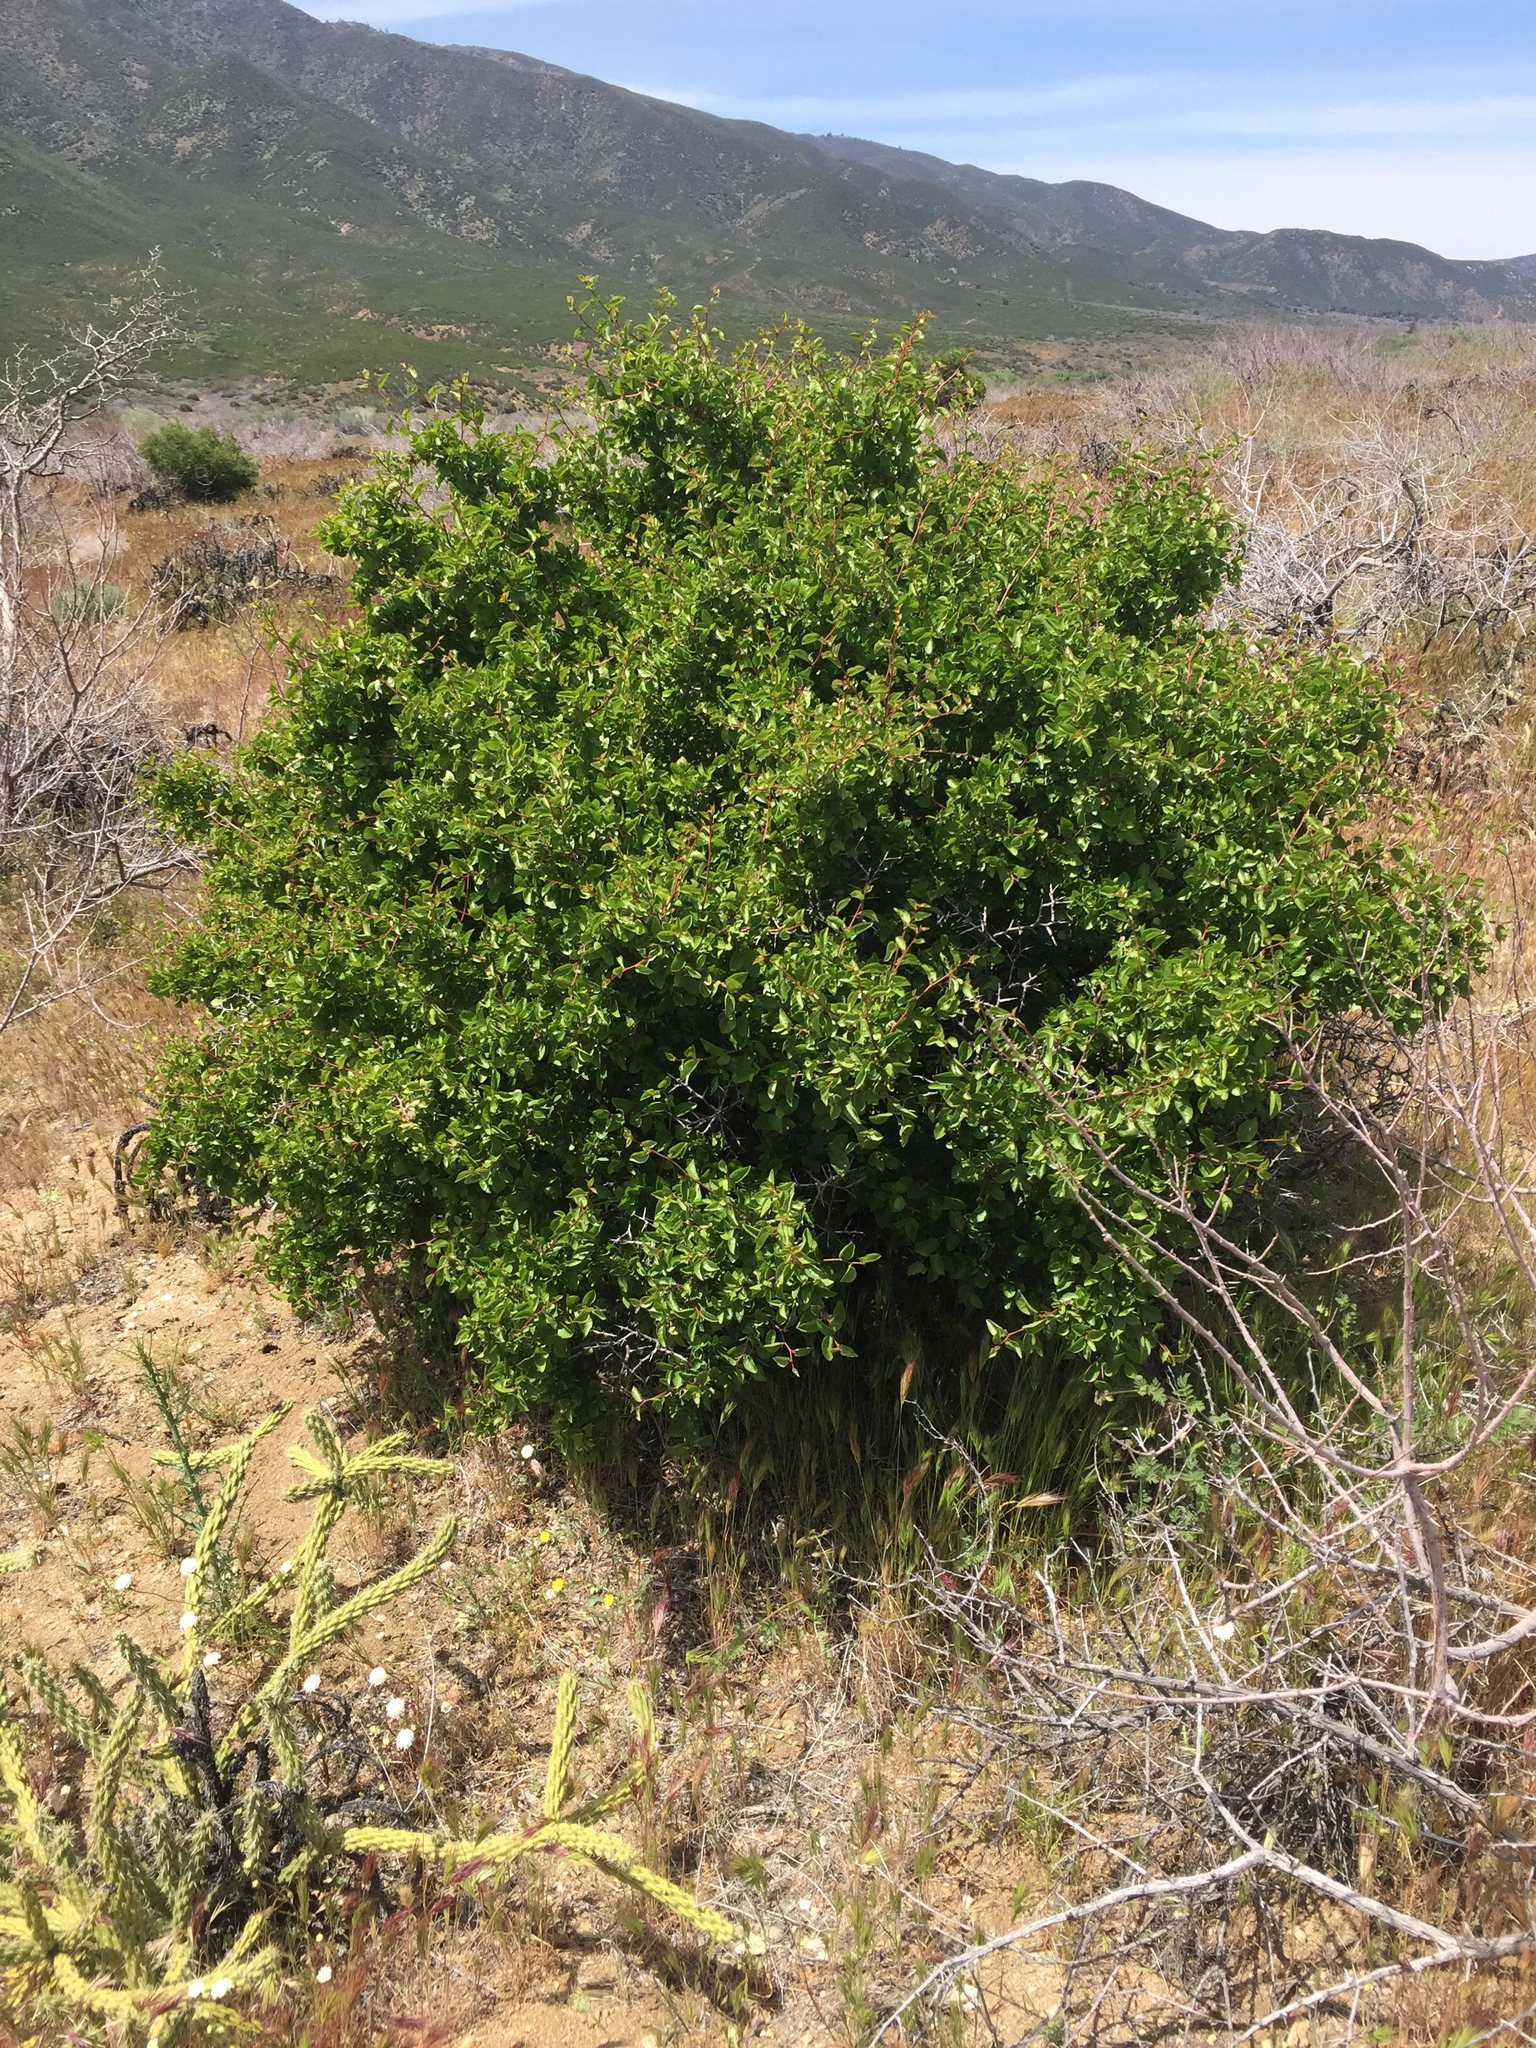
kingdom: Plantae
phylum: Tracheophyta
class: Magnoliopsida
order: Rosales
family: Rosaceae
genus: Prunus
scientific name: Prunus fremontii
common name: Desert apricot
